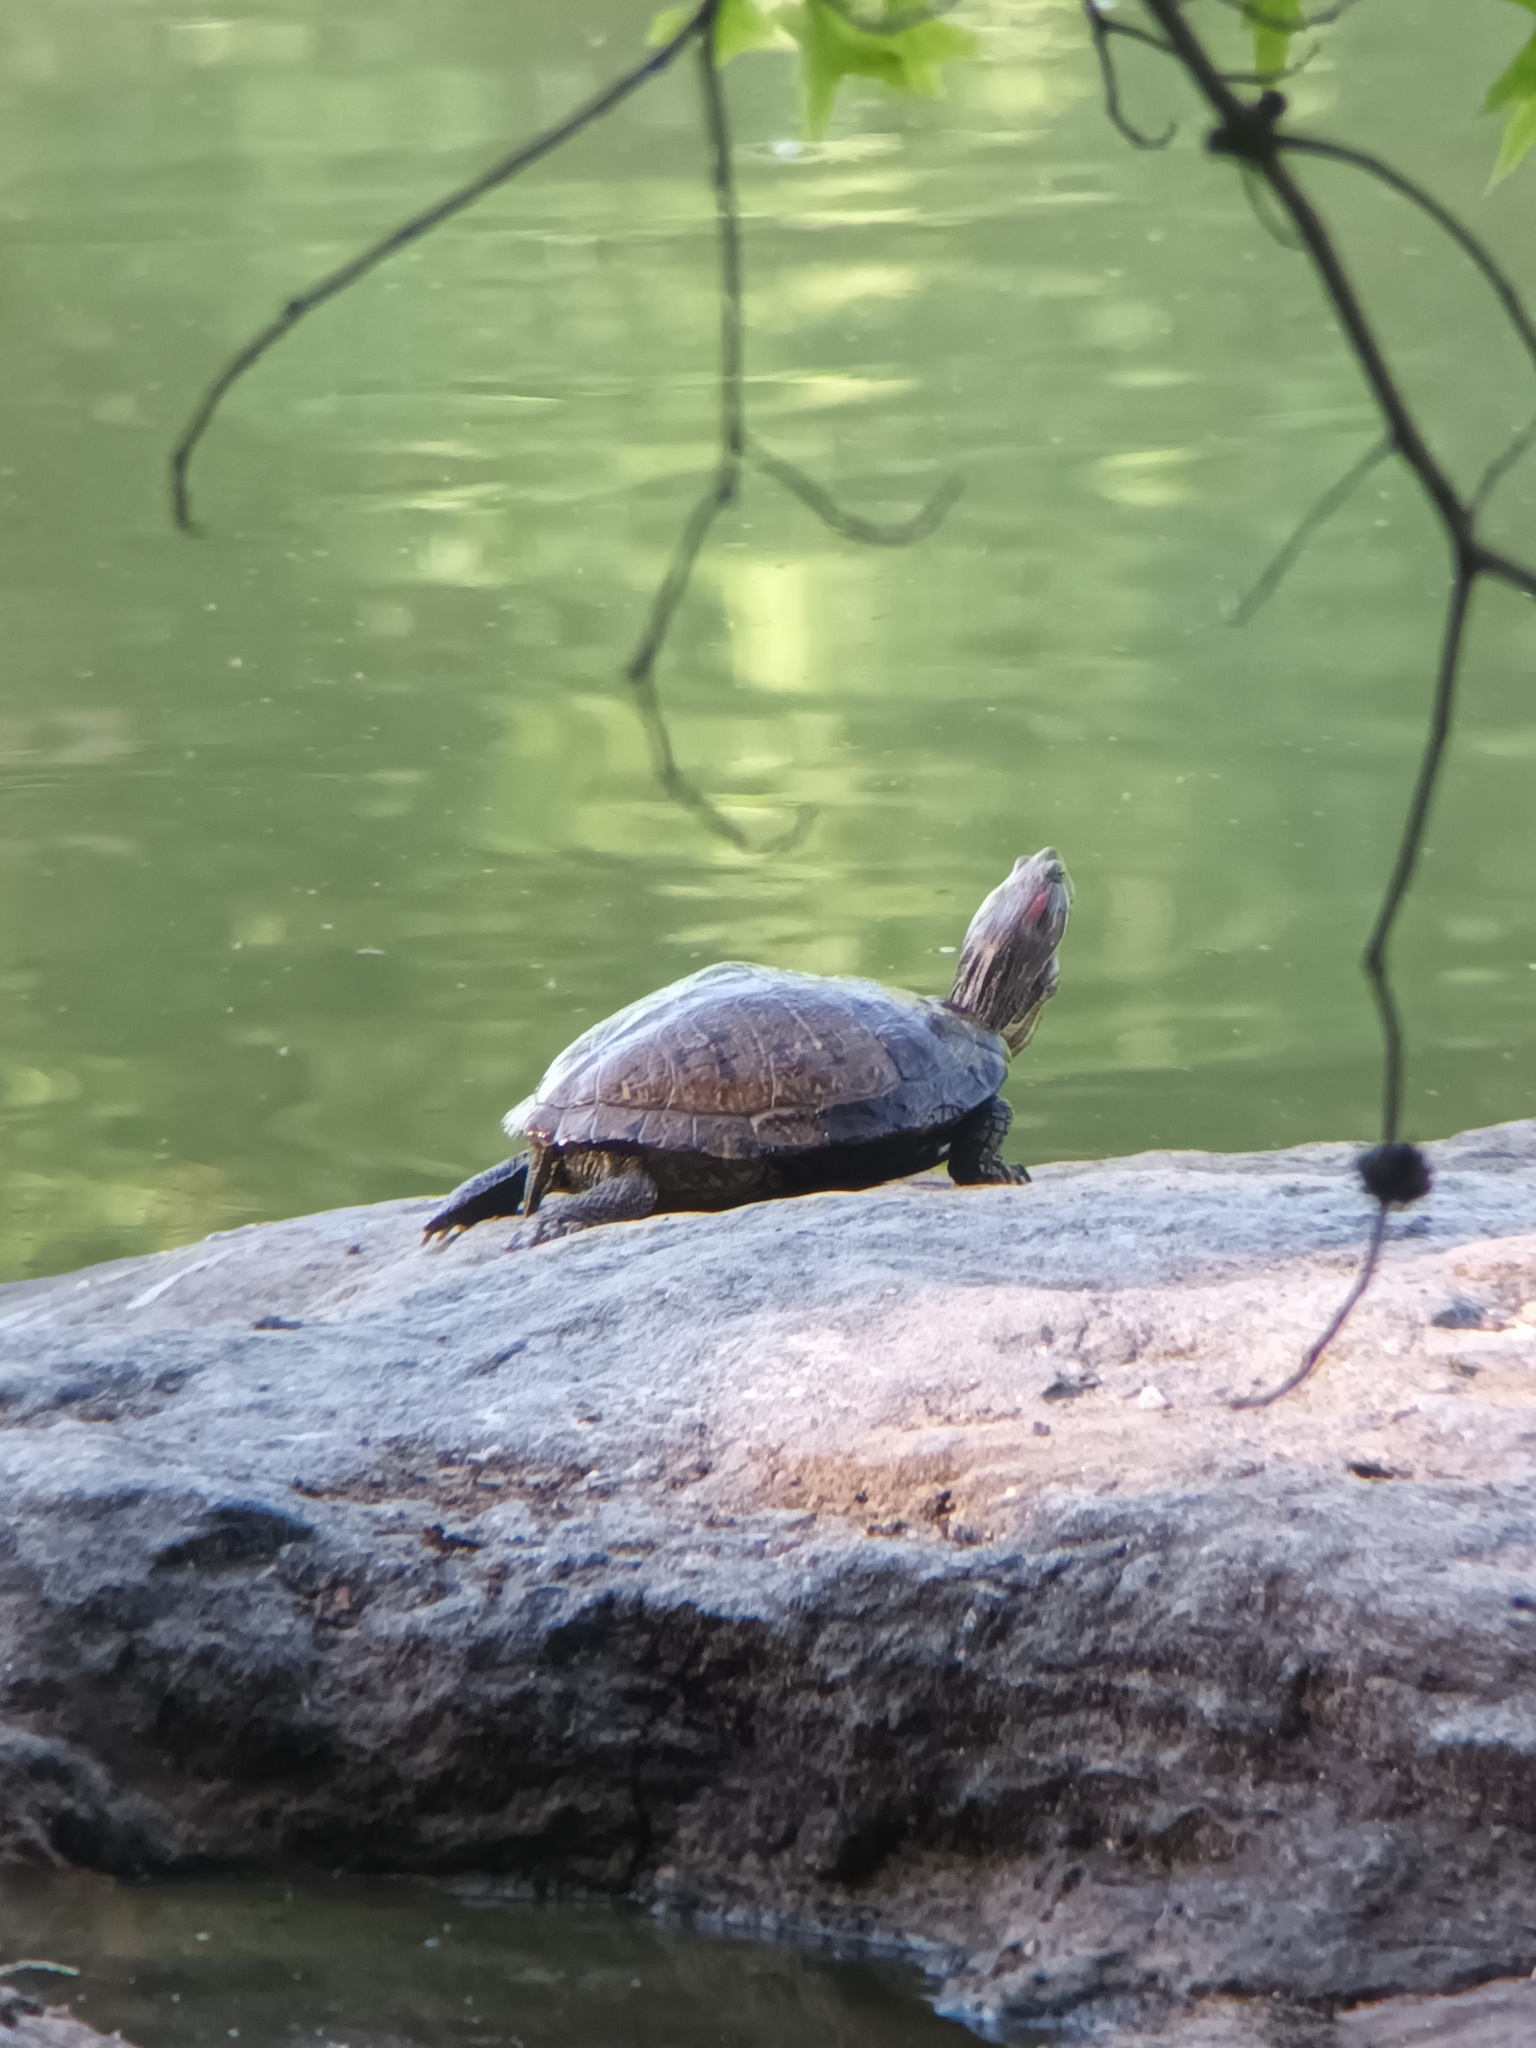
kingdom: Animalia
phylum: Chordata
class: Testudines
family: Emydidae
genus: Trachemys
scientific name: Trachemys scripta
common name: Slider
